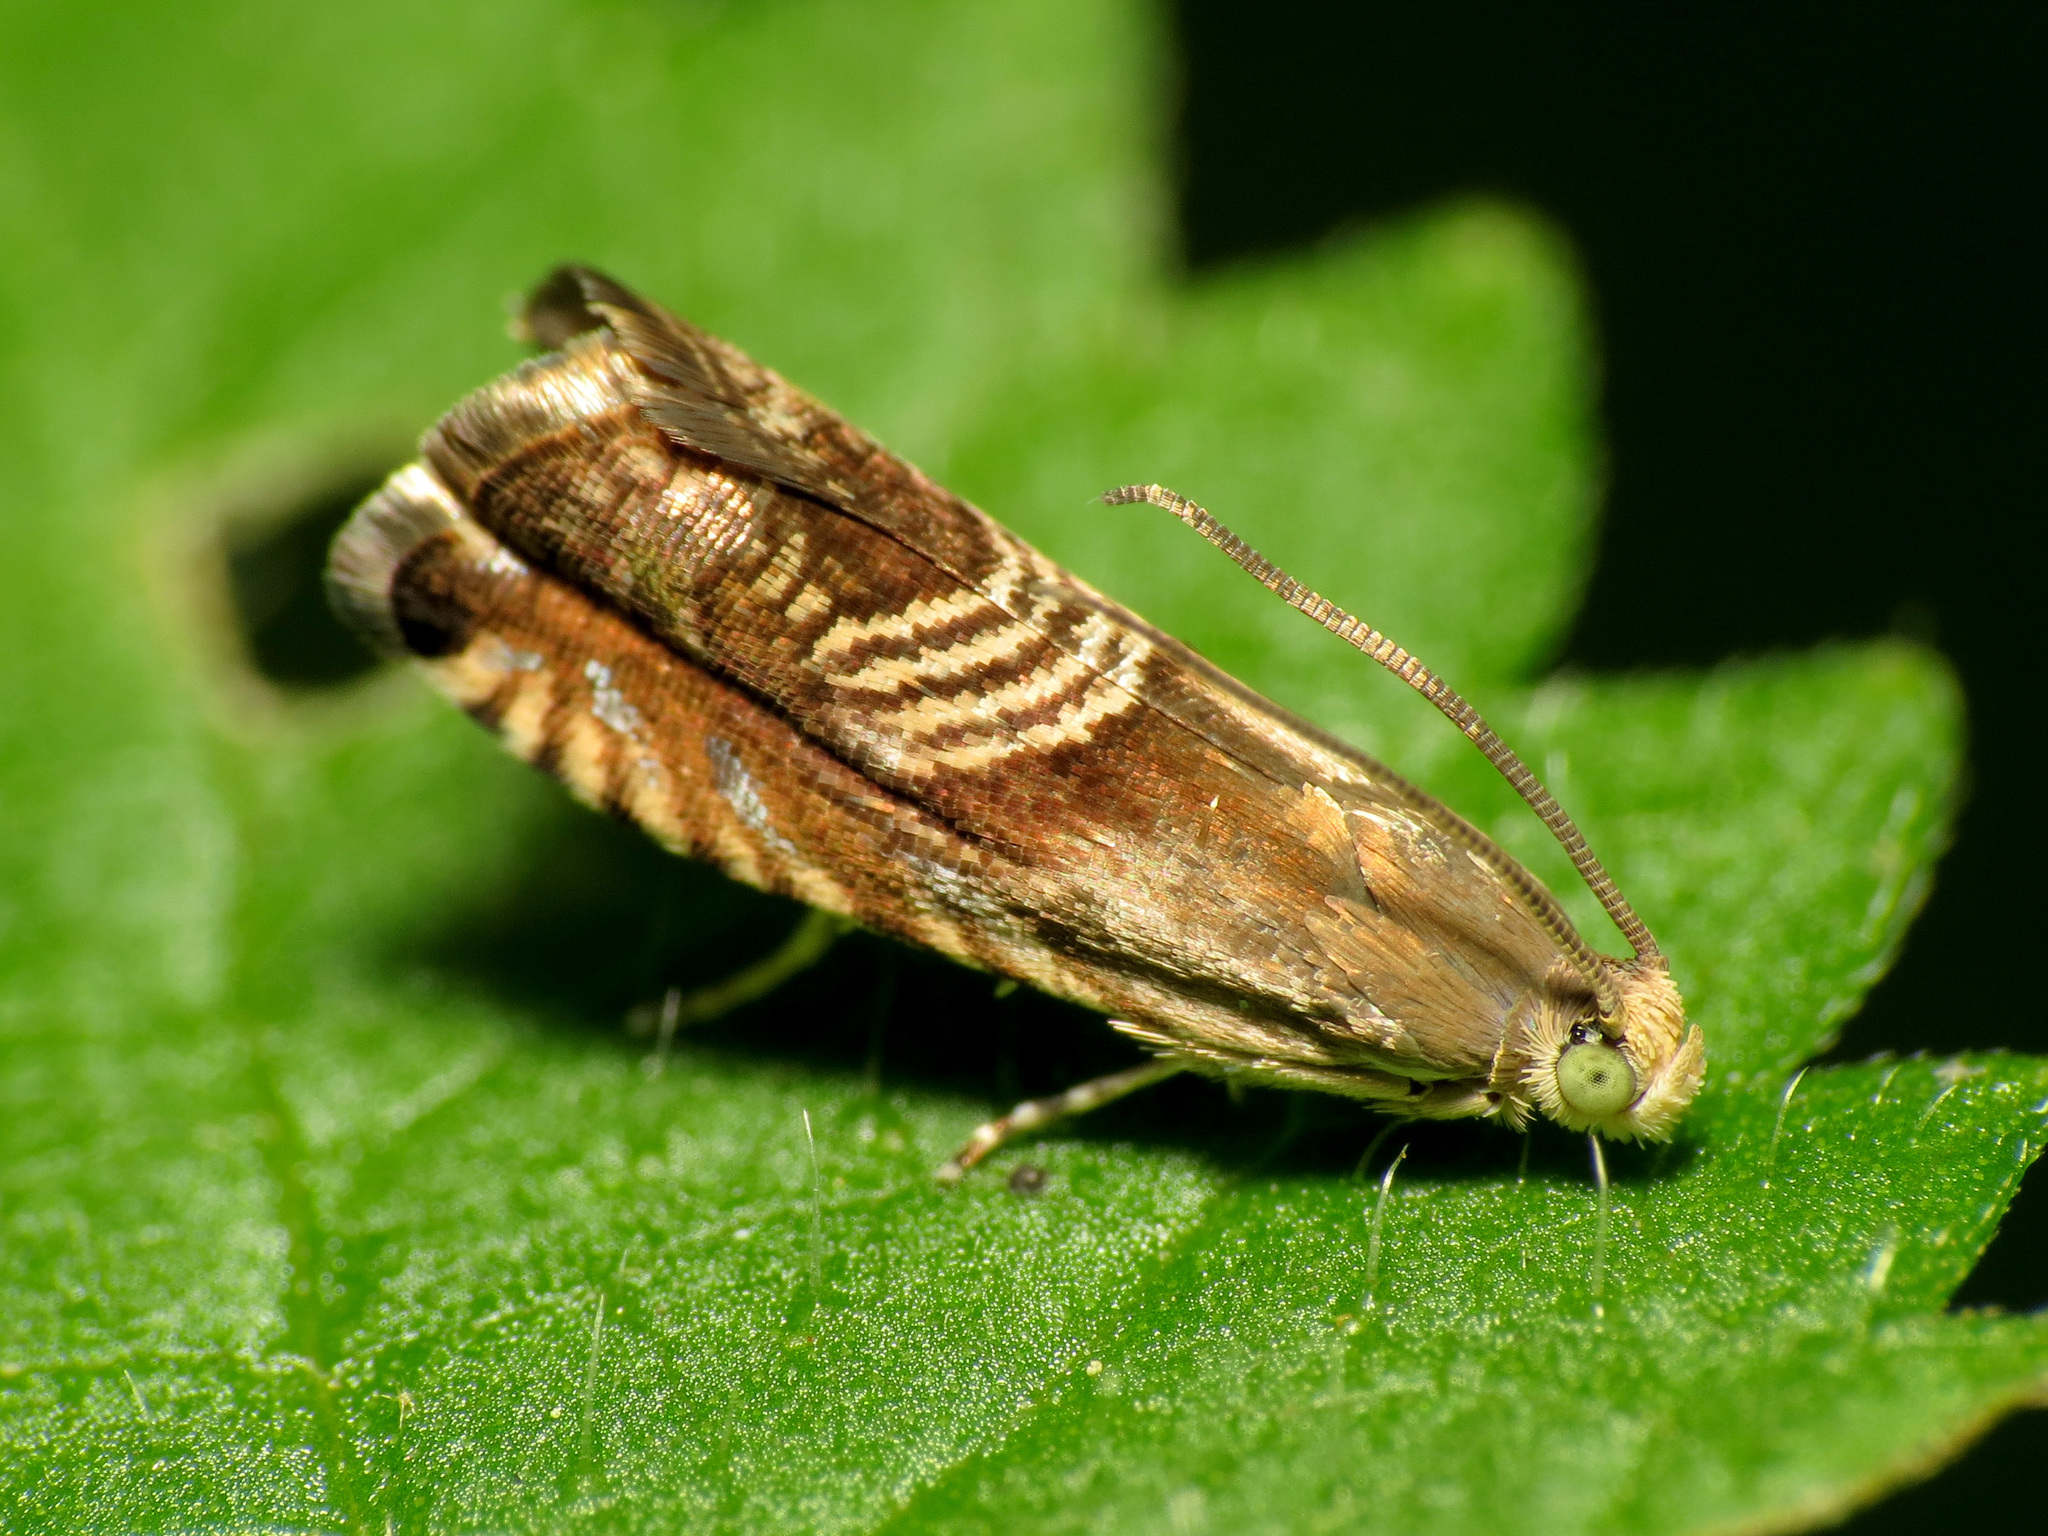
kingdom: Animalia
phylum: Arthropoda
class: Insecta
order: Lepidoptera
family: Tortricidae
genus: Grapholita
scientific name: Grapholita tristrigana
